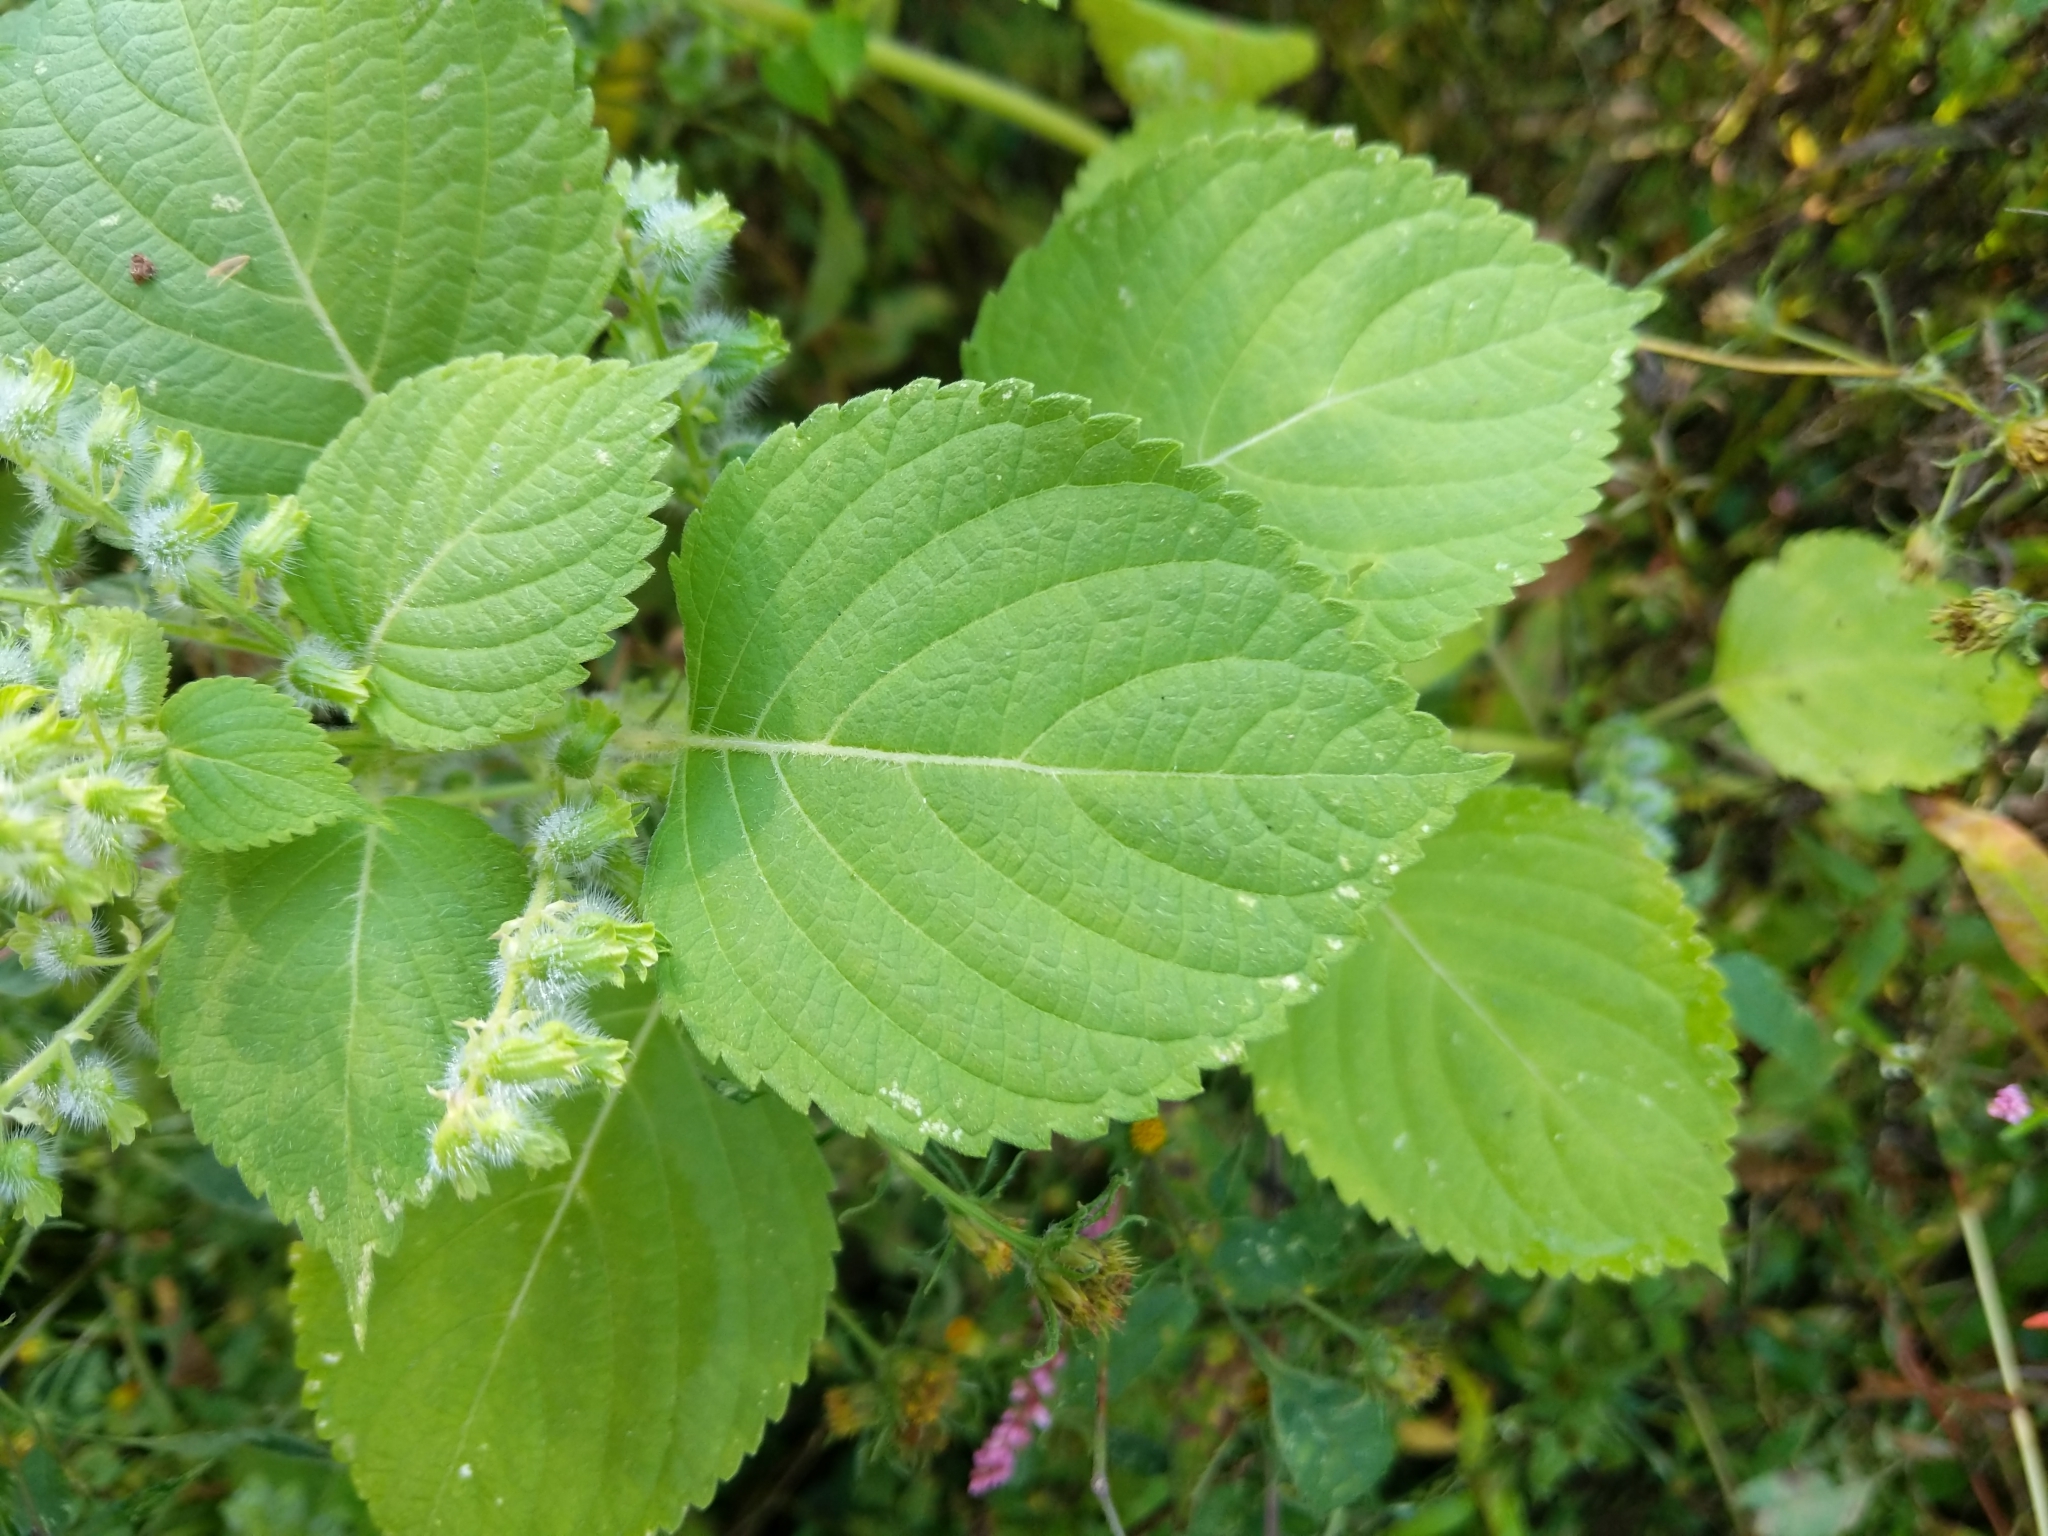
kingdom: Plantae
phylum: Tracheophyta
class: Magnoliopsida
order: Lamiales
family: Lamiaceae
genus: Perilla
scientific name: Perilla frutescens
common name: Perilla
